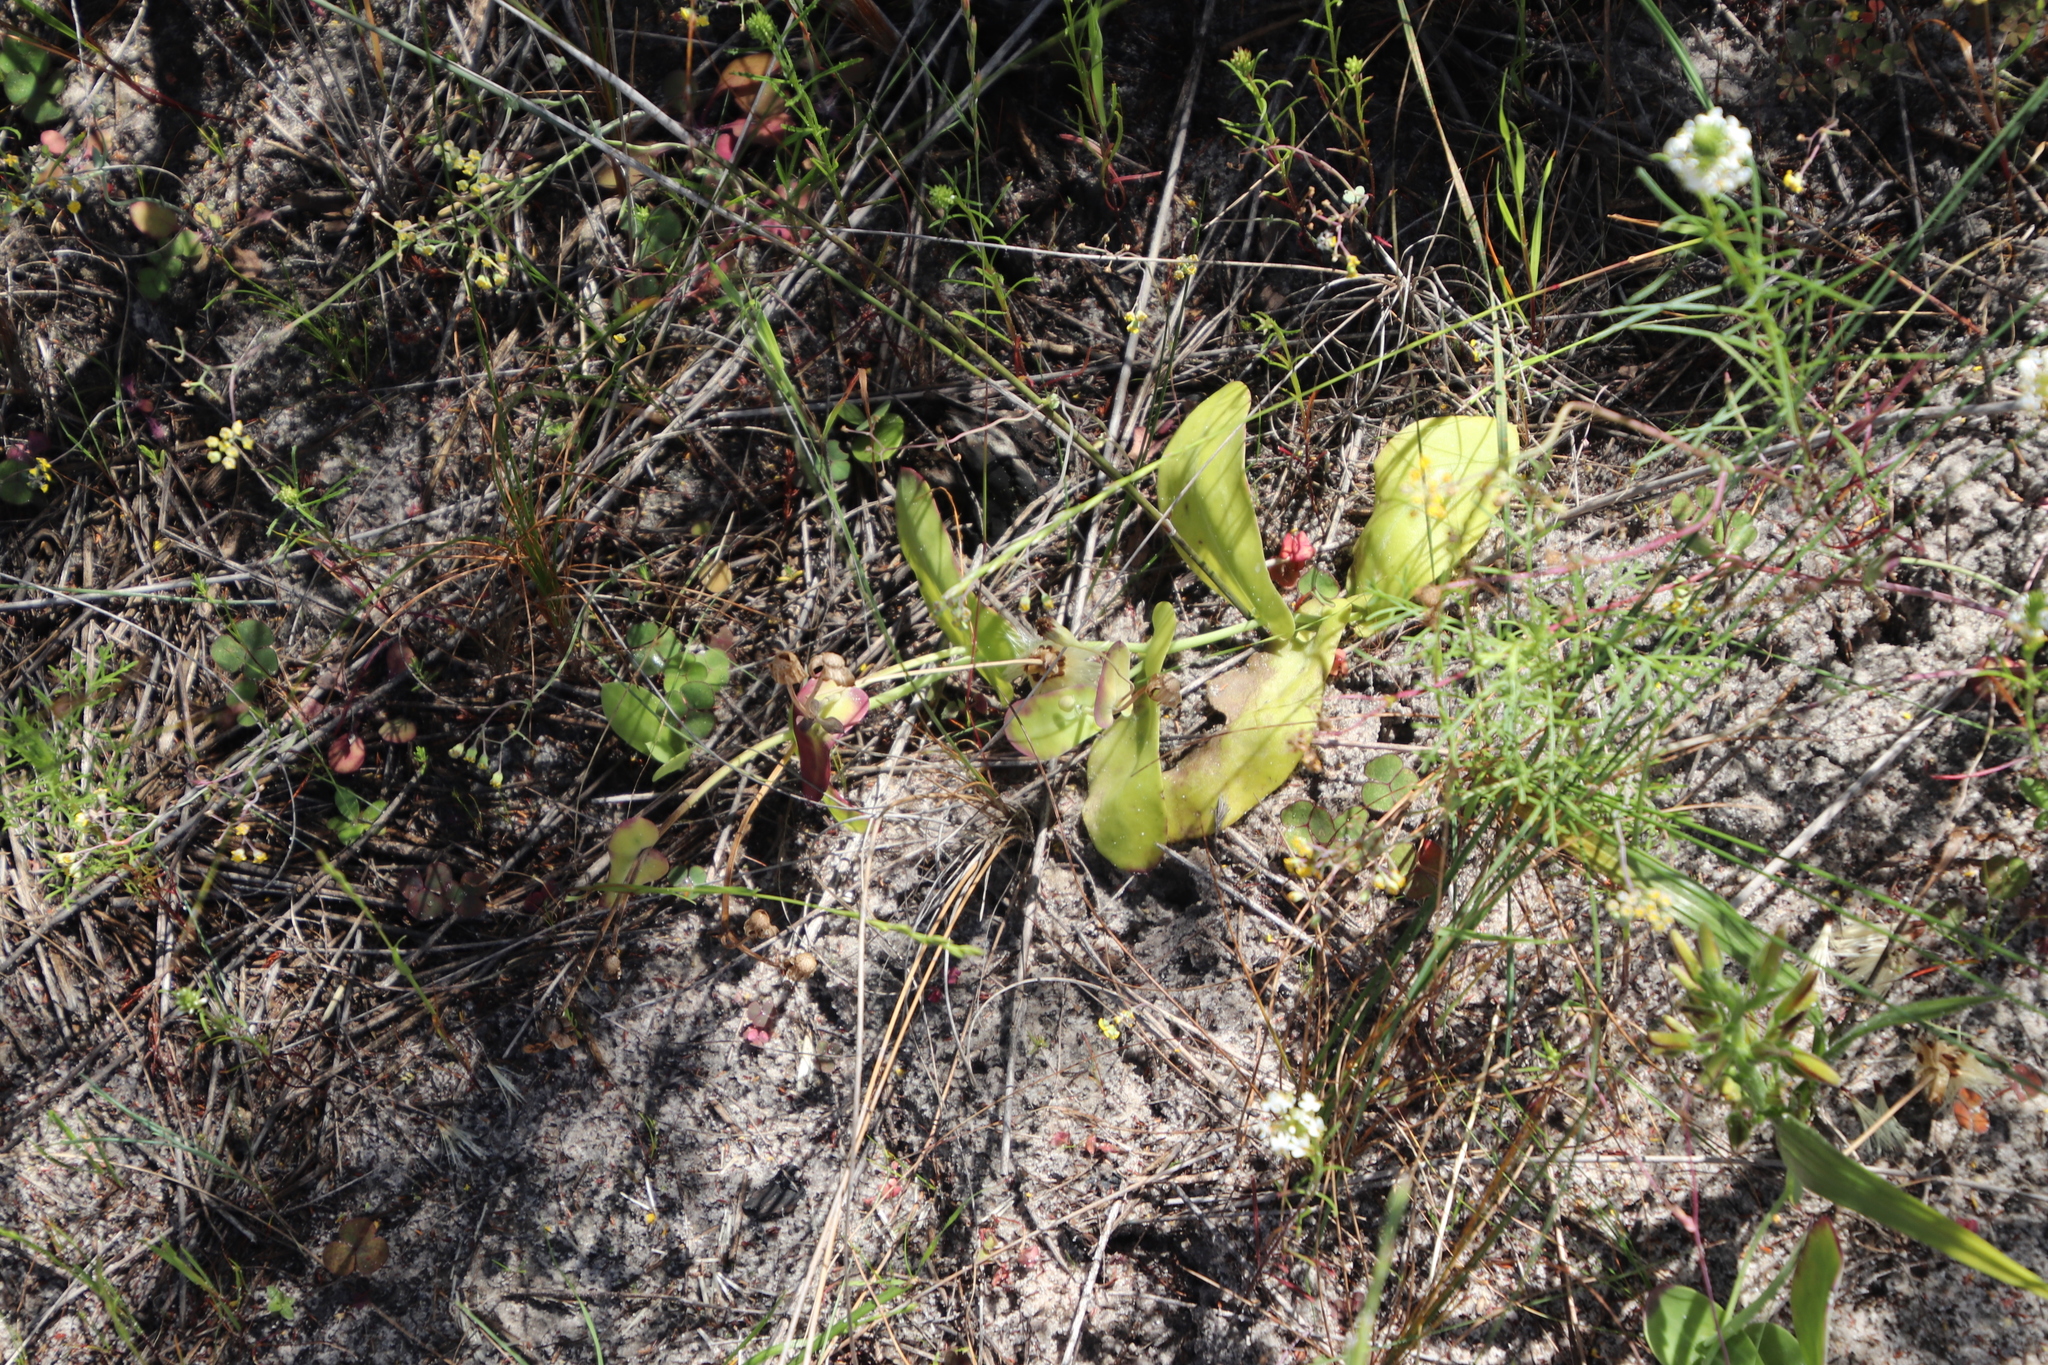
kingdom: Plantae
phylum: Tracheophyta
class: Magnoliopsida
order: Asterales
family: Asteraceae
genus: Othonna
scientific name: Othonna undulosa
